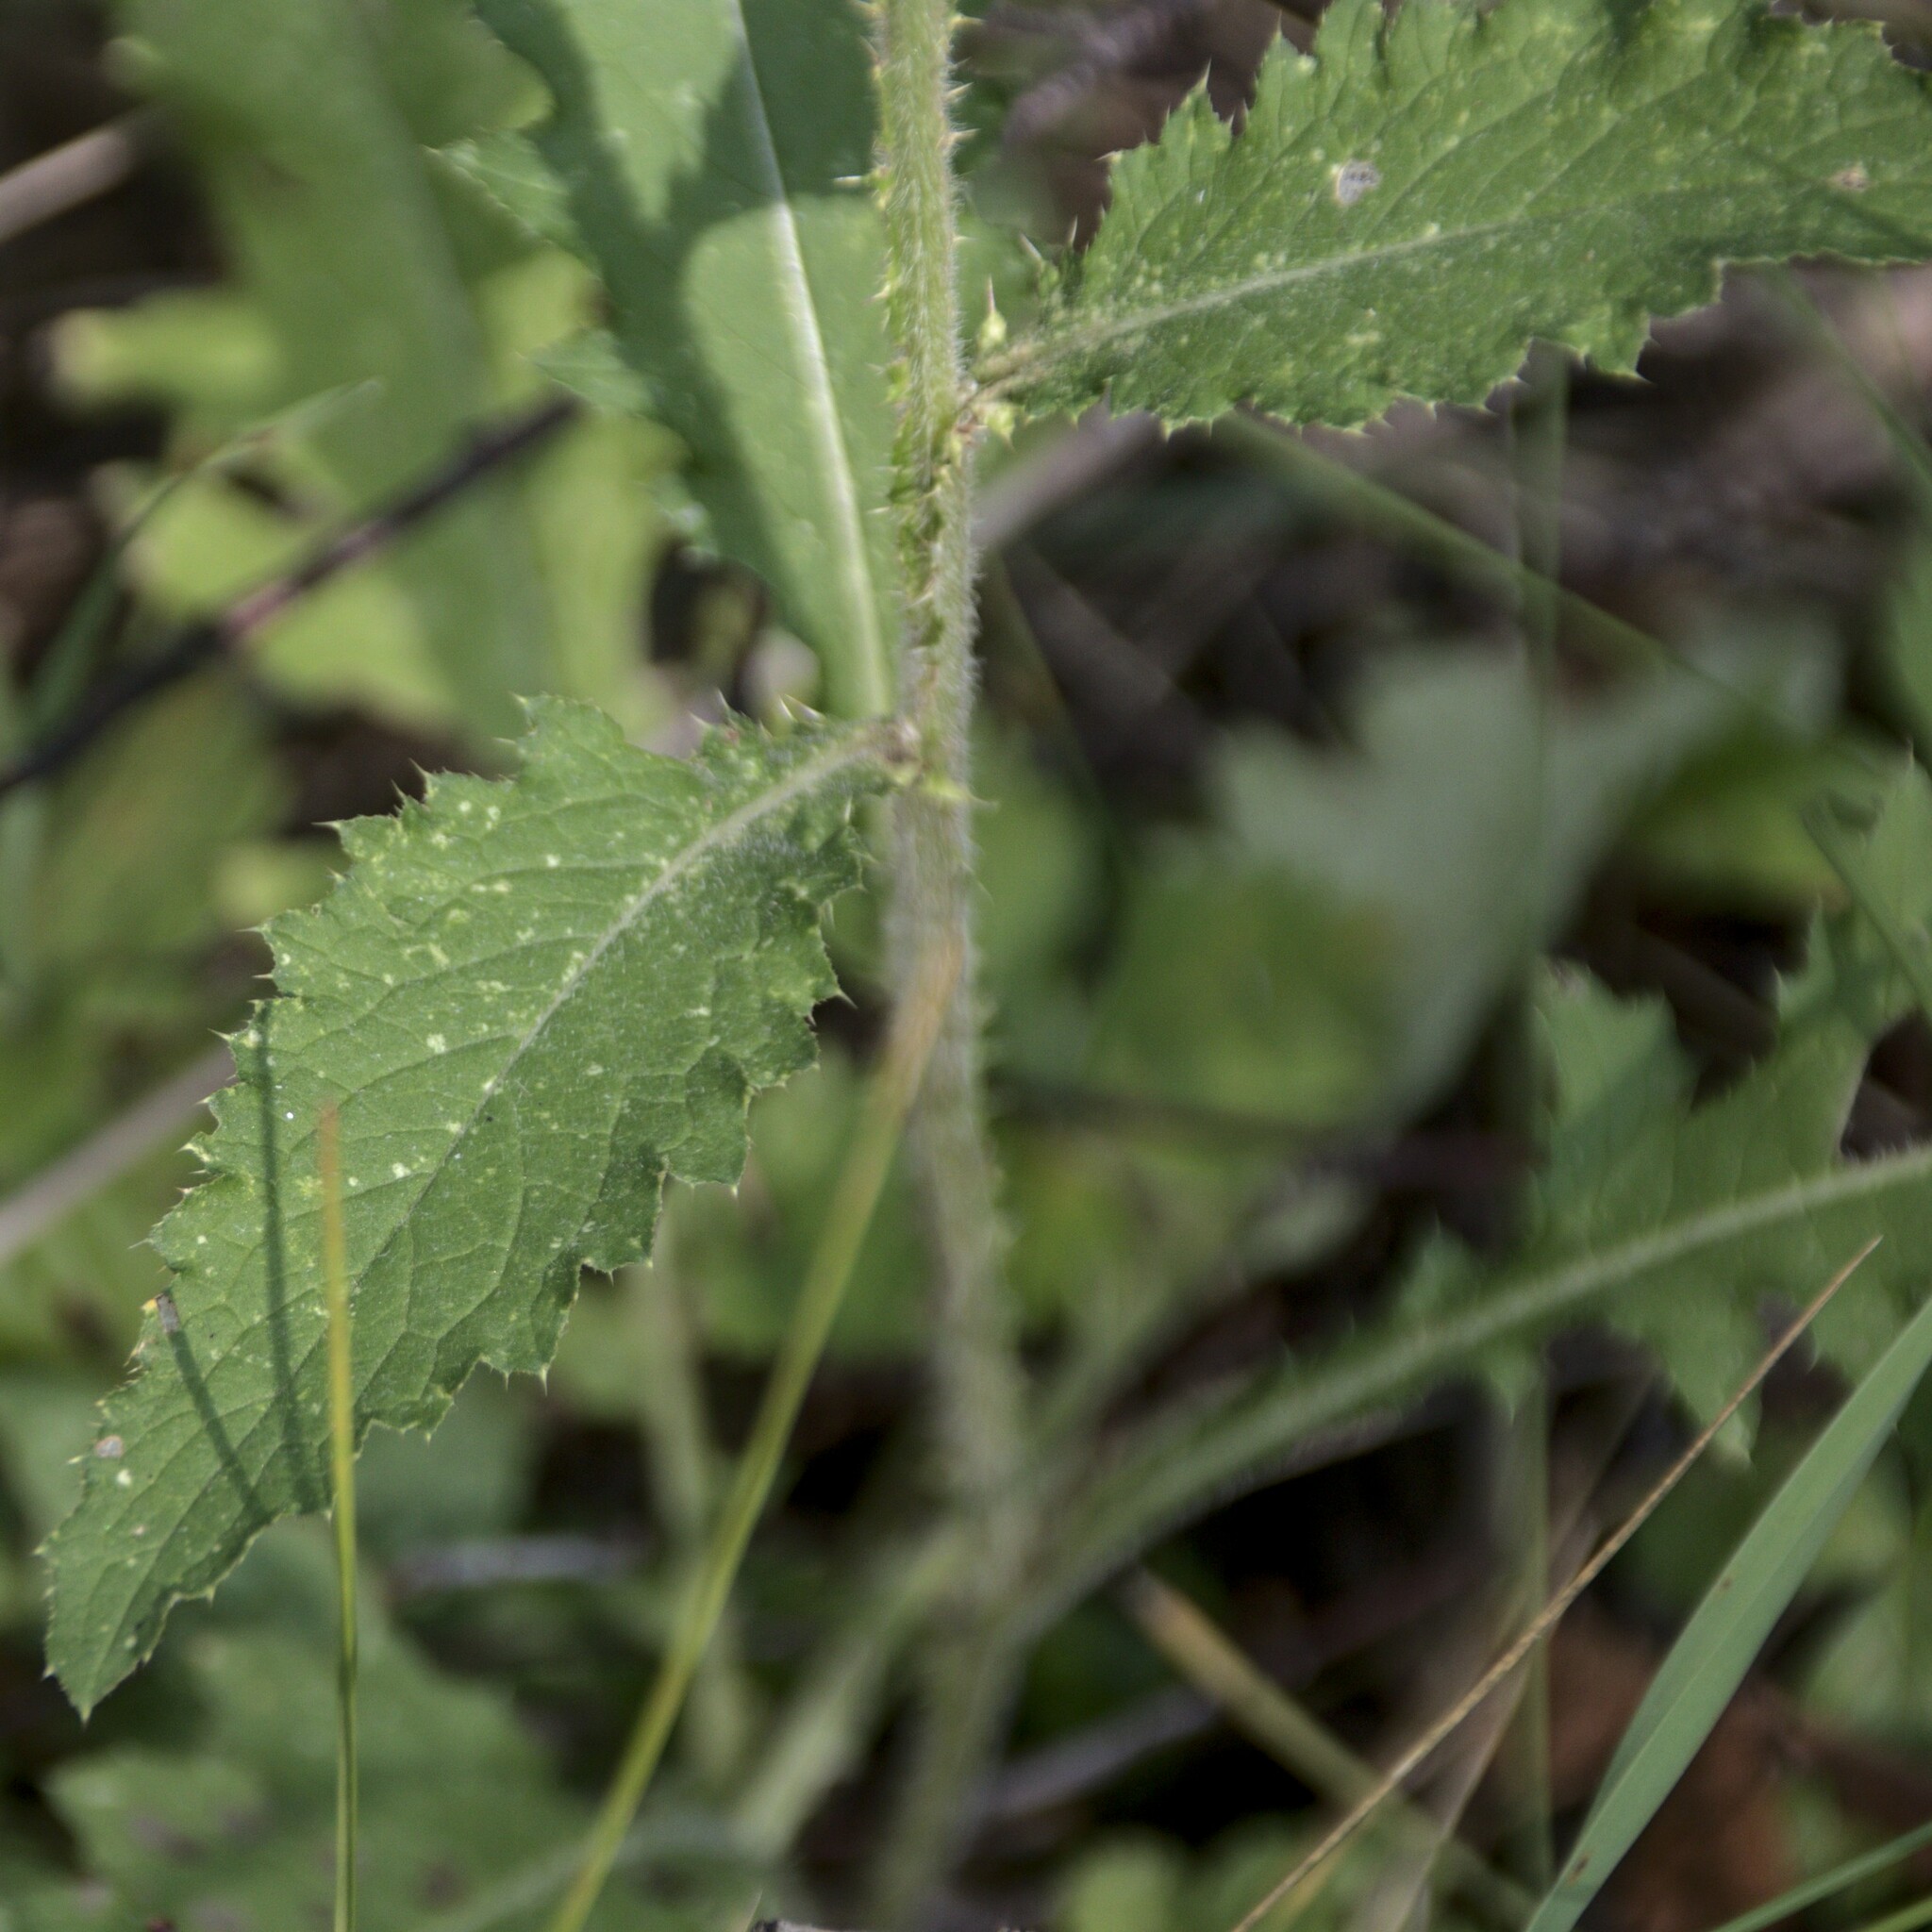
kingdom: Plantae
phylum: Tracheophyta
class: Magnoliopsida
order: Asterales
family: Asteraceae
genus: Carduus
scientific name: Carduus crispus
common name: Welted thistle
